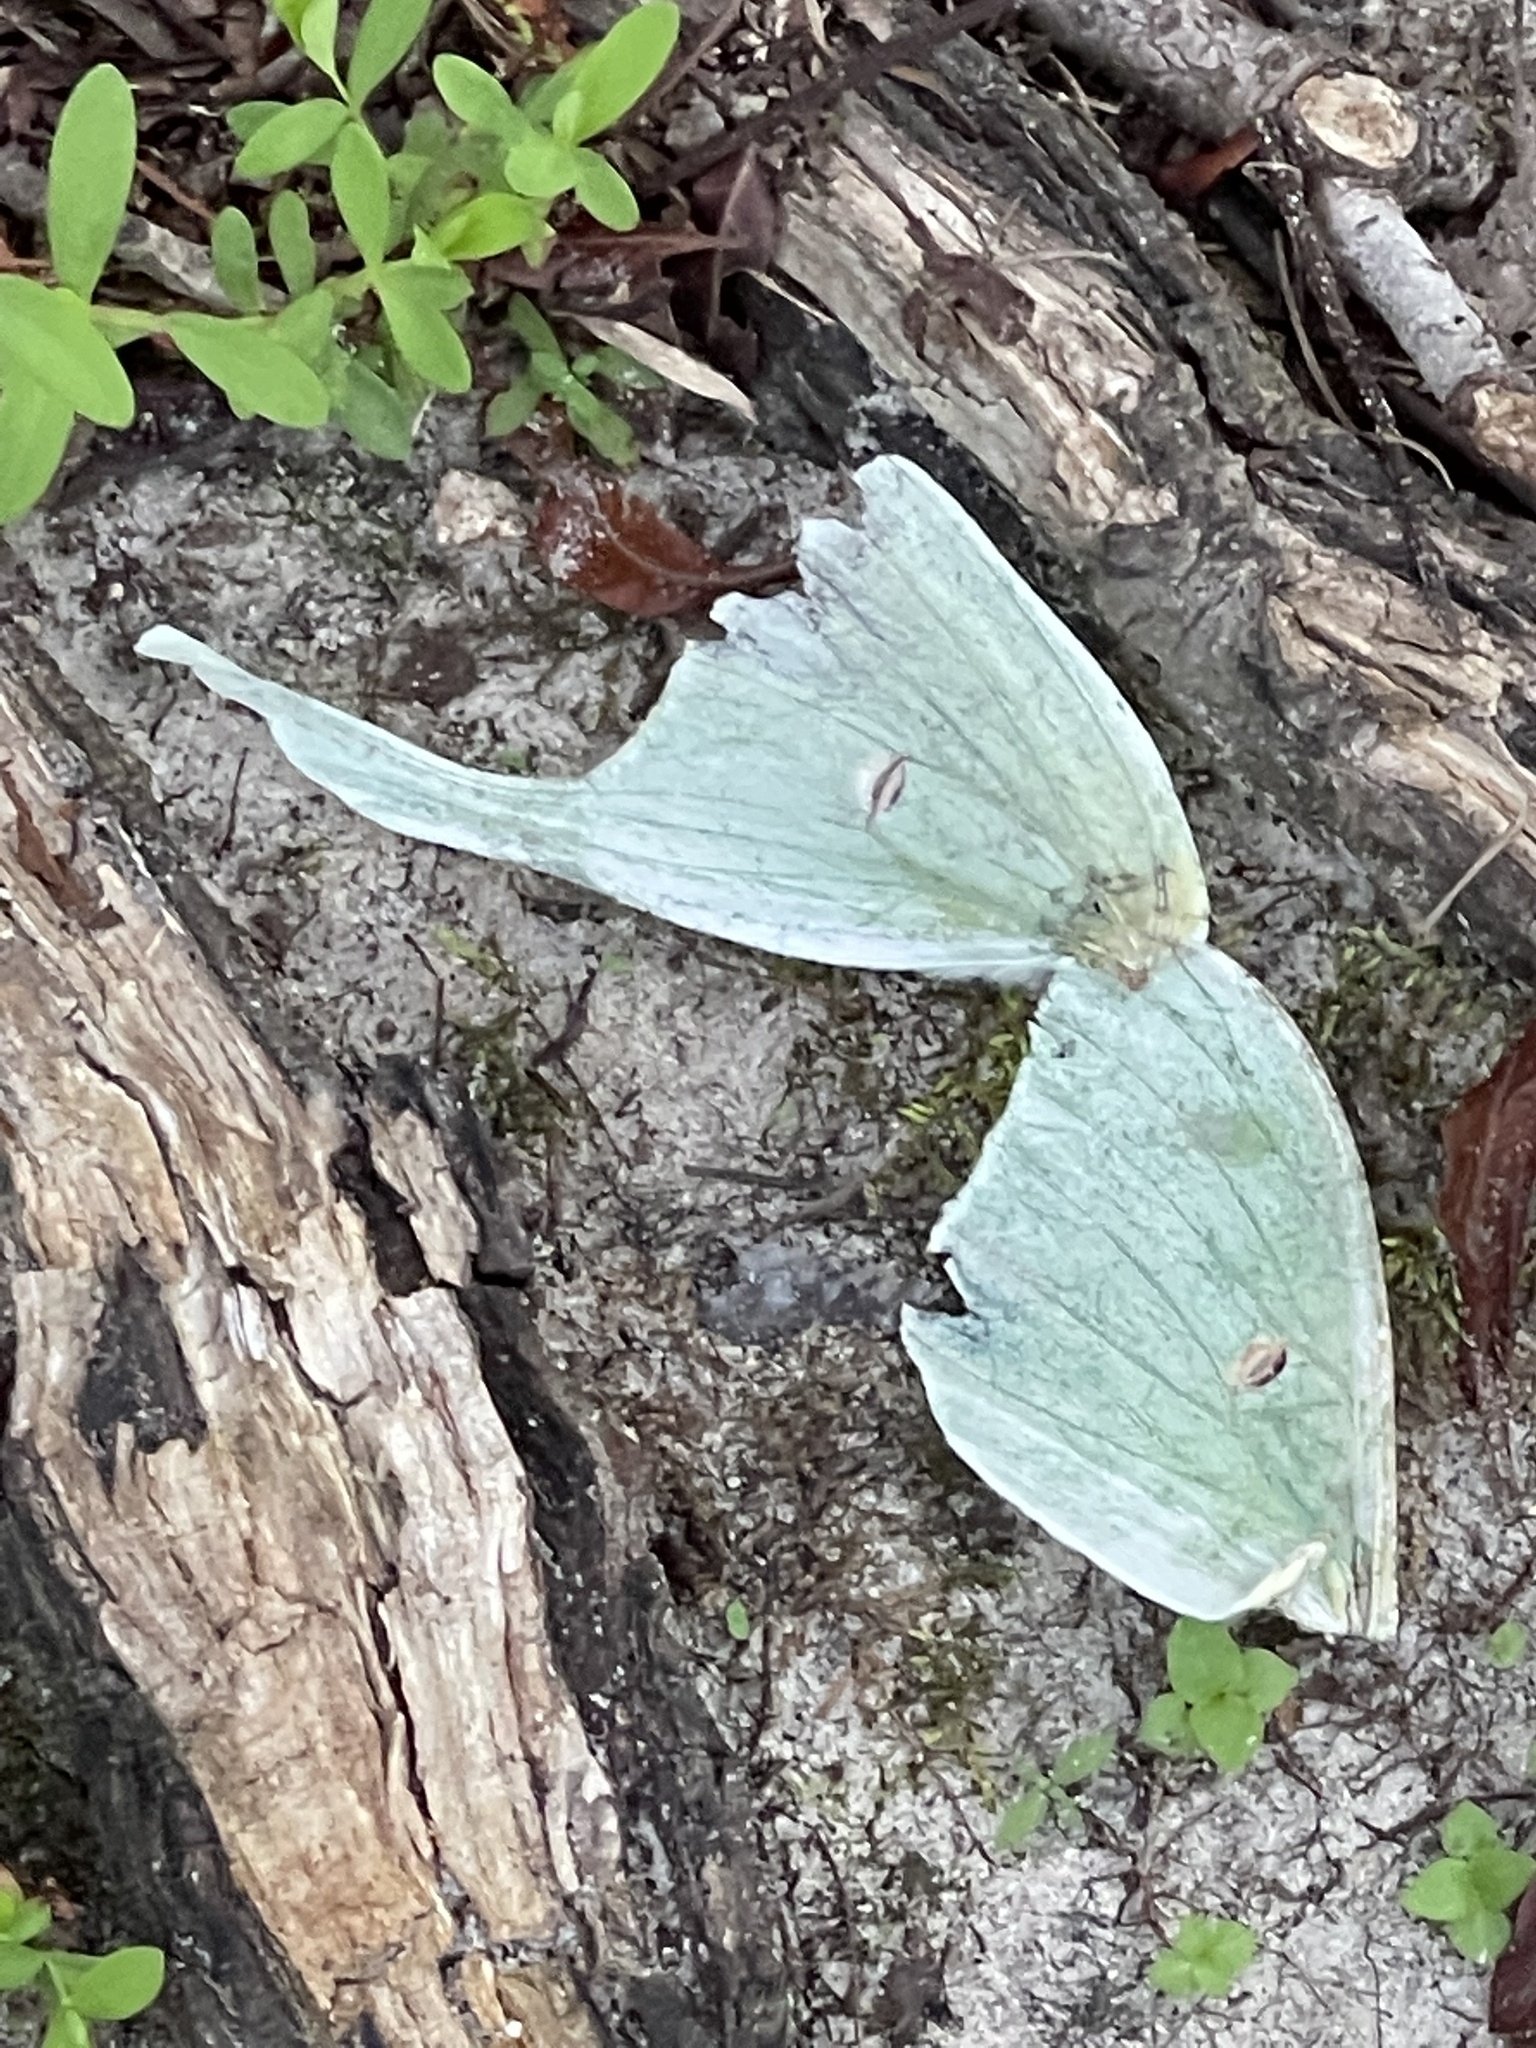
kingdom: Animalia
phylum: Arthropoda
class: Insecta
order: Lepidoptera
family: Saturniidae
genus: Actias
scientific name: Actias luna
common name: Luna moth
